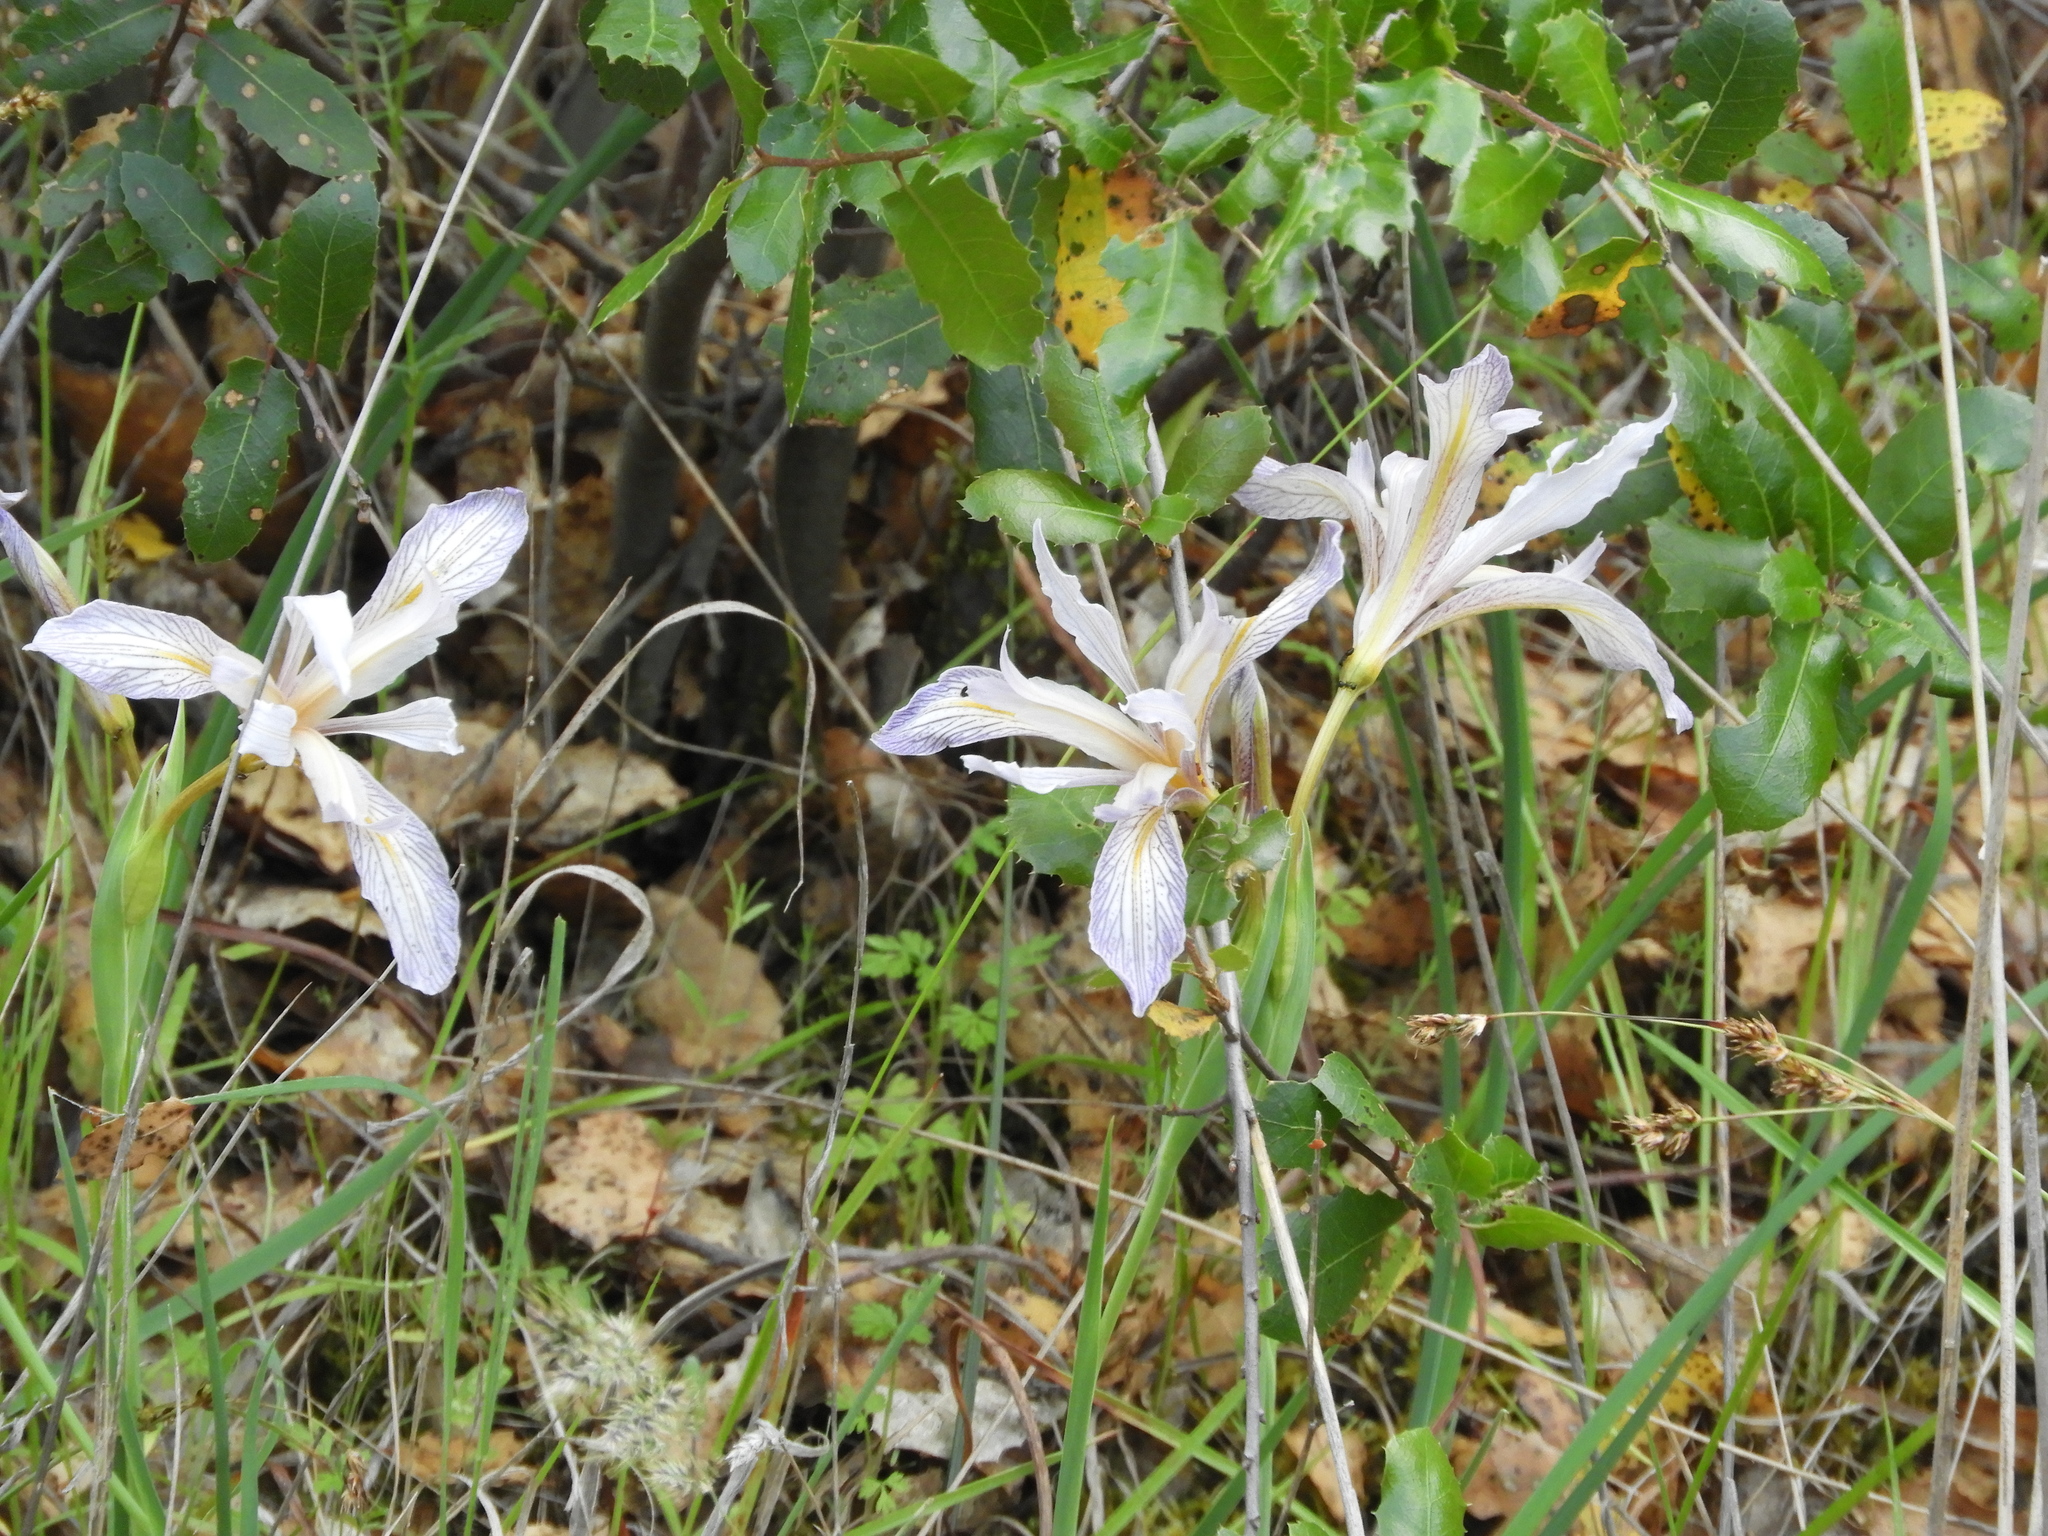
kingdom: Plantae
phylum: Tracheophyta
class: Liliopsida
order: Asparagales
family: Iridaceae
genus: Iris
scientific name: Iris macrosiphon
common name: Ground iris
